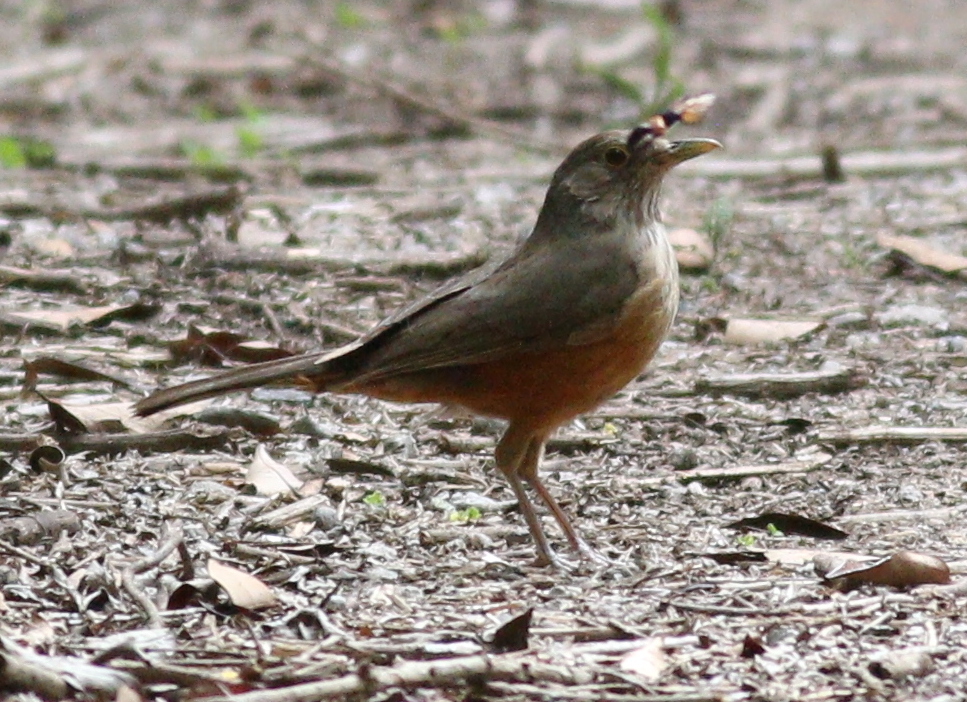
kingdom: Animalia
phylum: Chordata
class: Aves
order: Passeriformes
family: Turdidae
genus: Turdus
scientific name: Turdus rufiventris
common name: Rufous-bellied thrush
